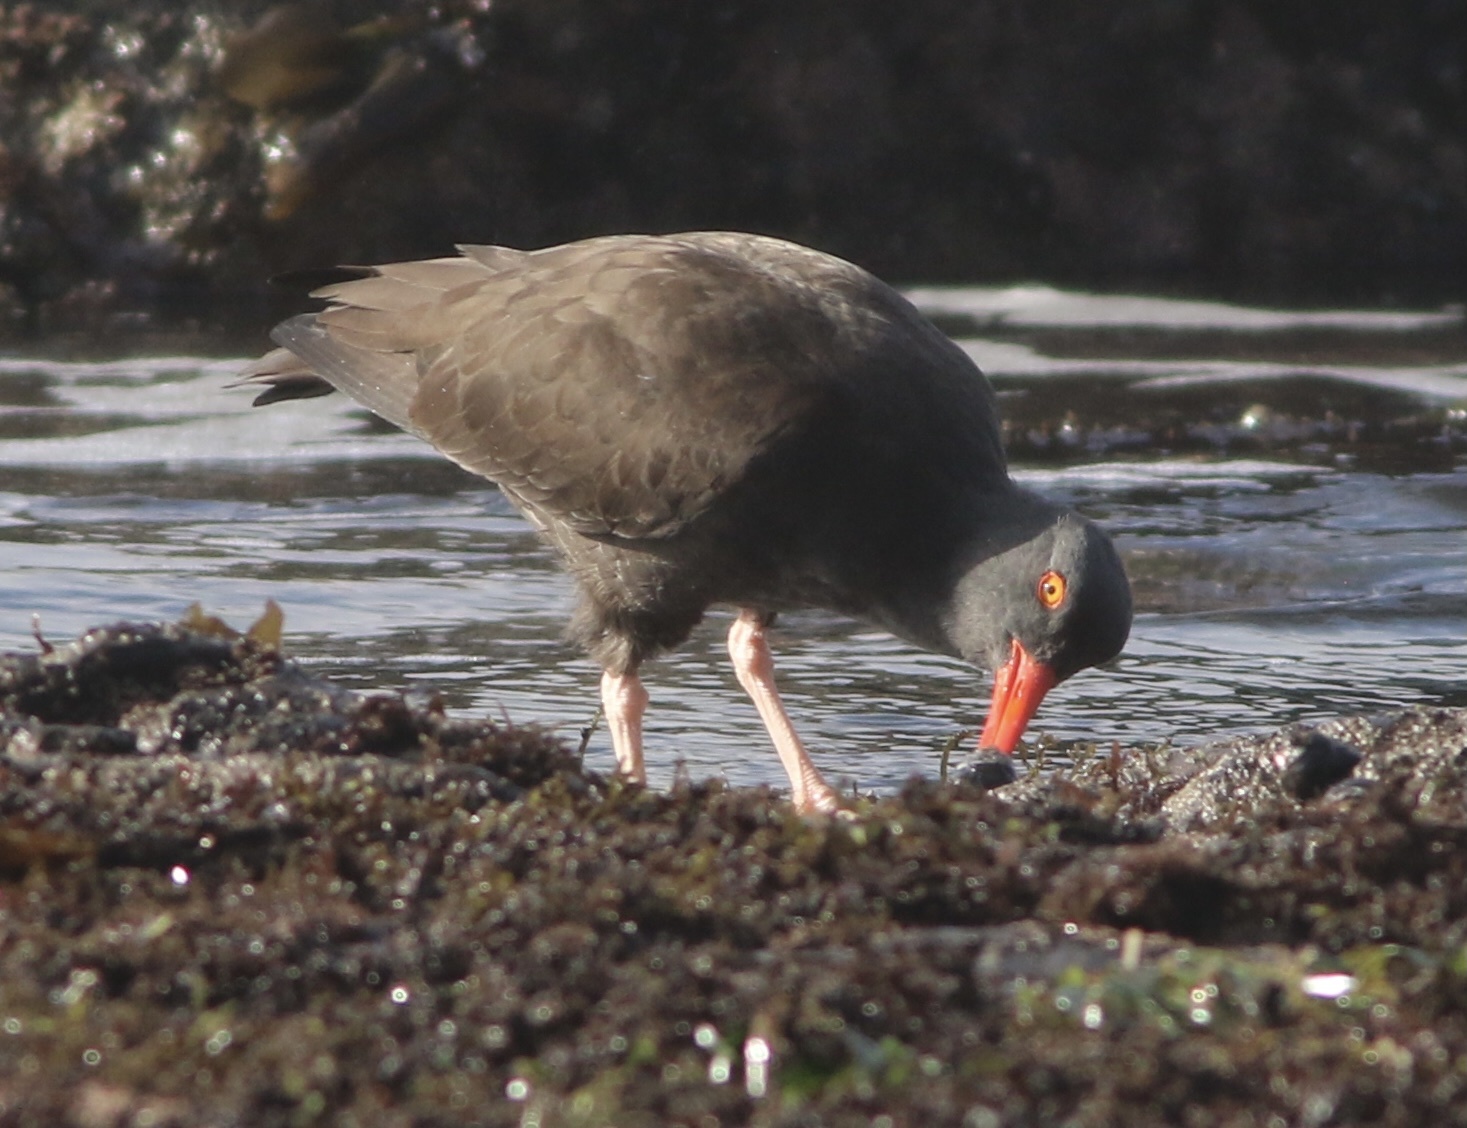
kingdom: Animalia
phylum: Chordata
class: Aves
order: Charadriiformes
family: Haematopodidae
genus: Haematopus
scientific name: Haematopus bachmani
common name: Black oystercatcher
